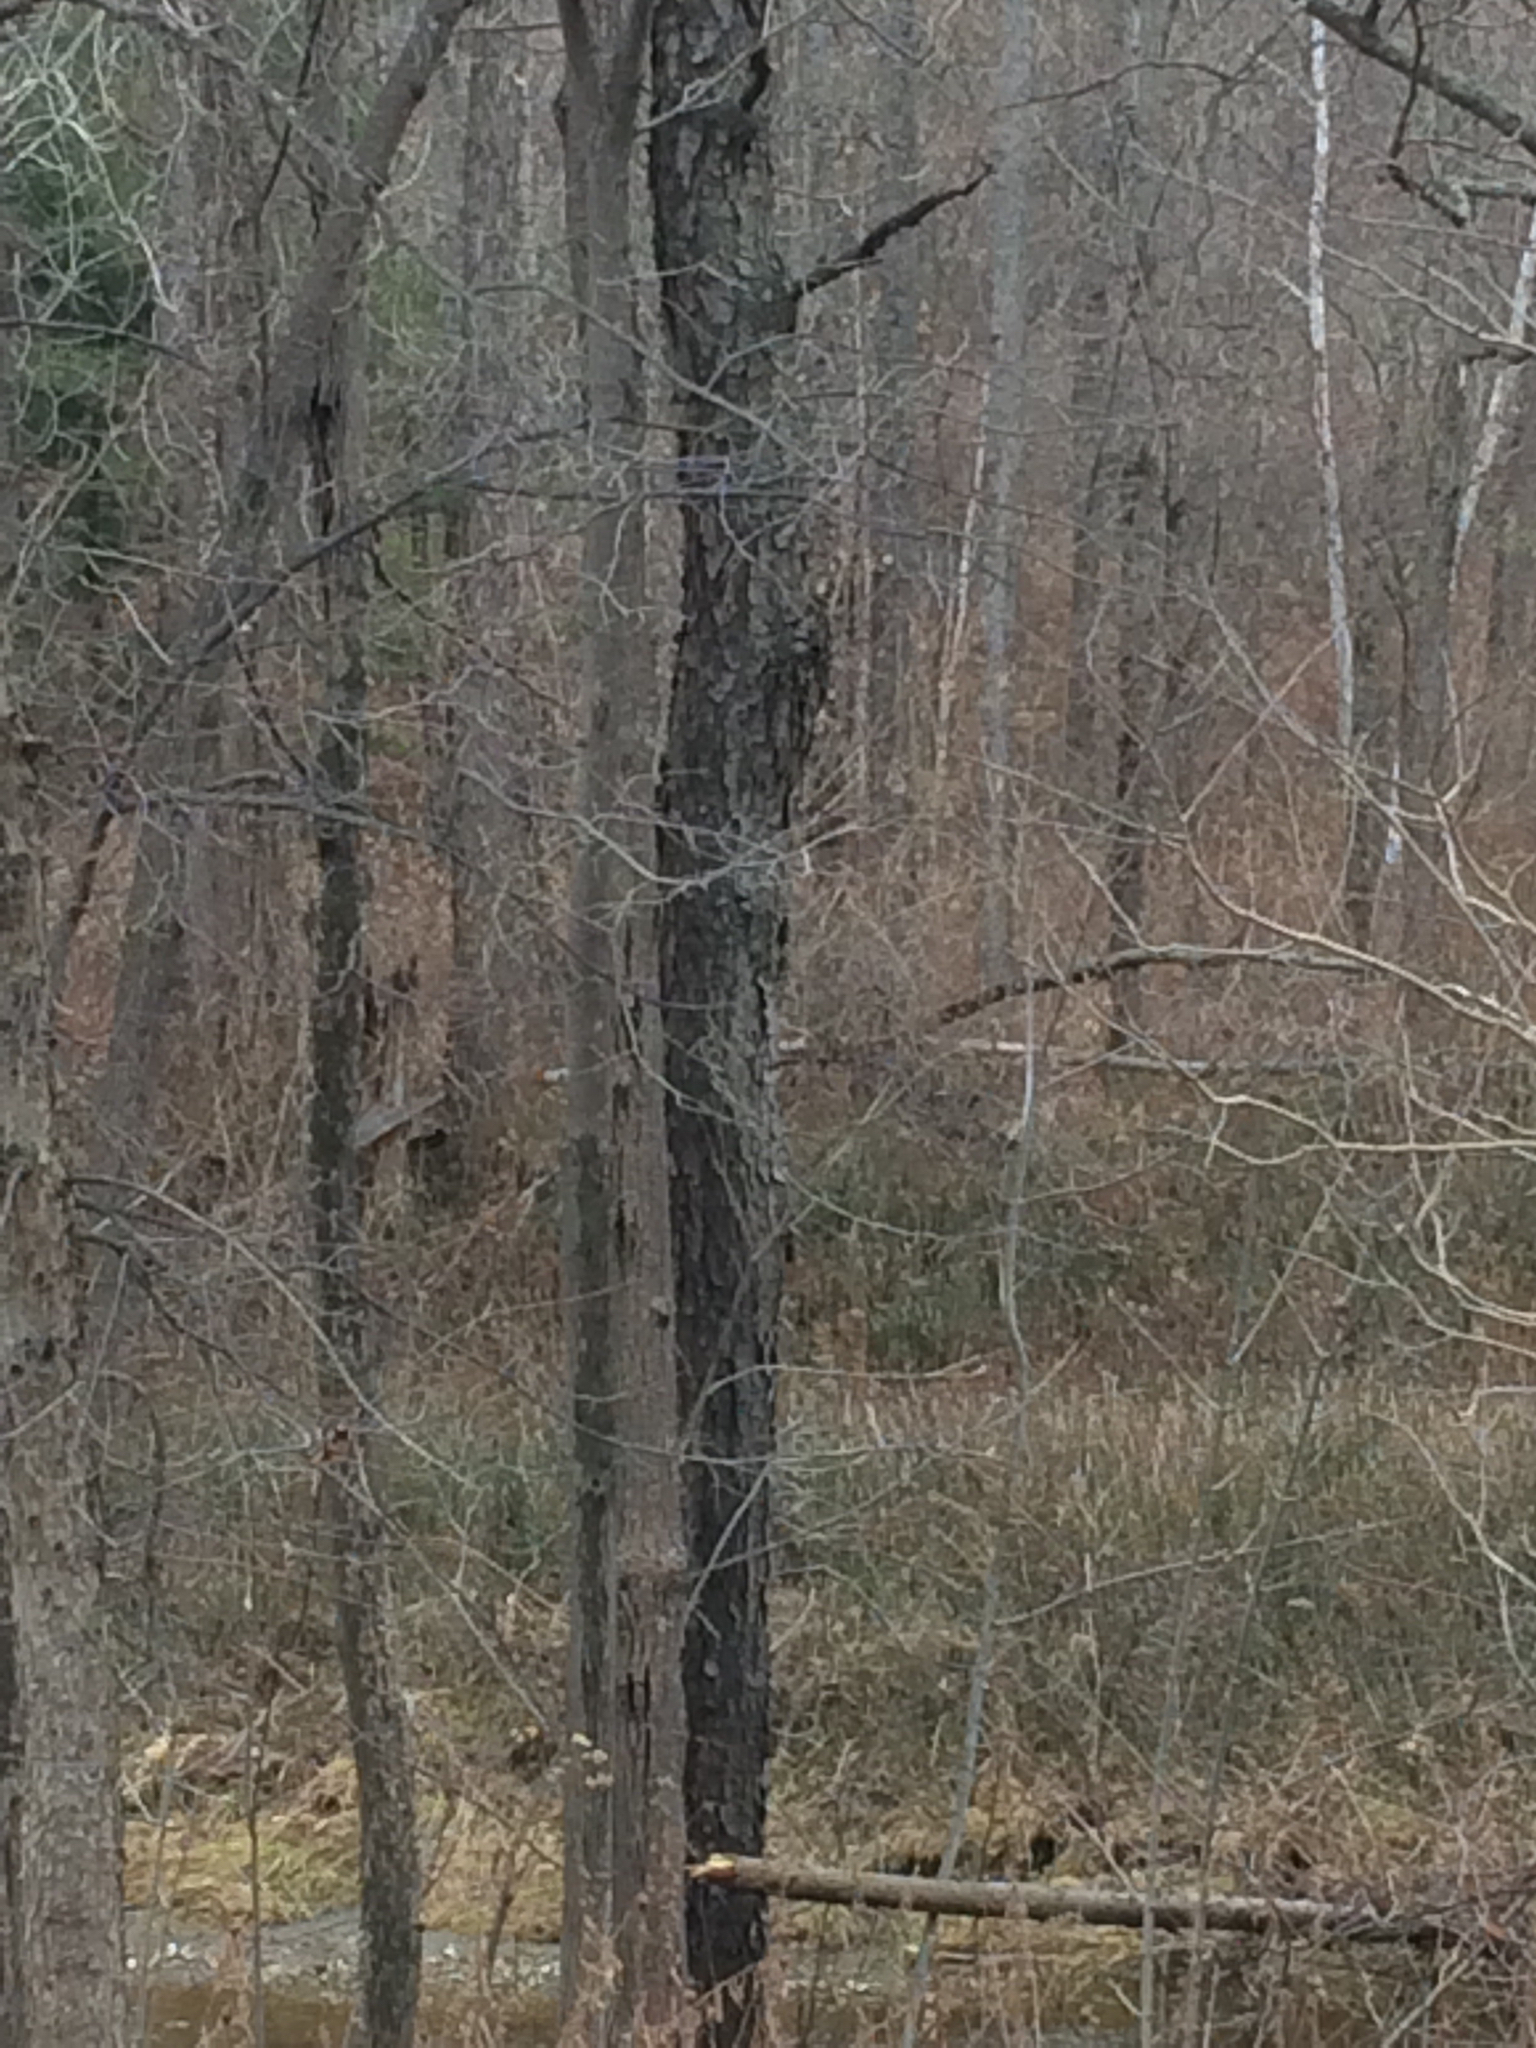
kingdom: Plantae
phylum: Tracheophyta
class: Magnoliopsida
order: Rosales
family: Rosaceae
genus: Prunus
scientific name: Prunus serotina
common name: Black cherry
